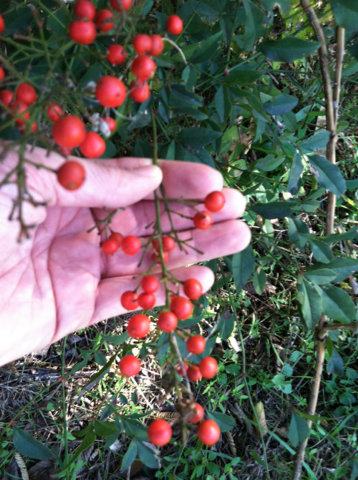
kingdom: Plantae
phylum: Tracheophyta
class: Magnoliopsida
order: Ranunculales
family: Berberidaceae
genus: Nandina
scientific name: Nandina domestica
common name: Sacred bamboo
